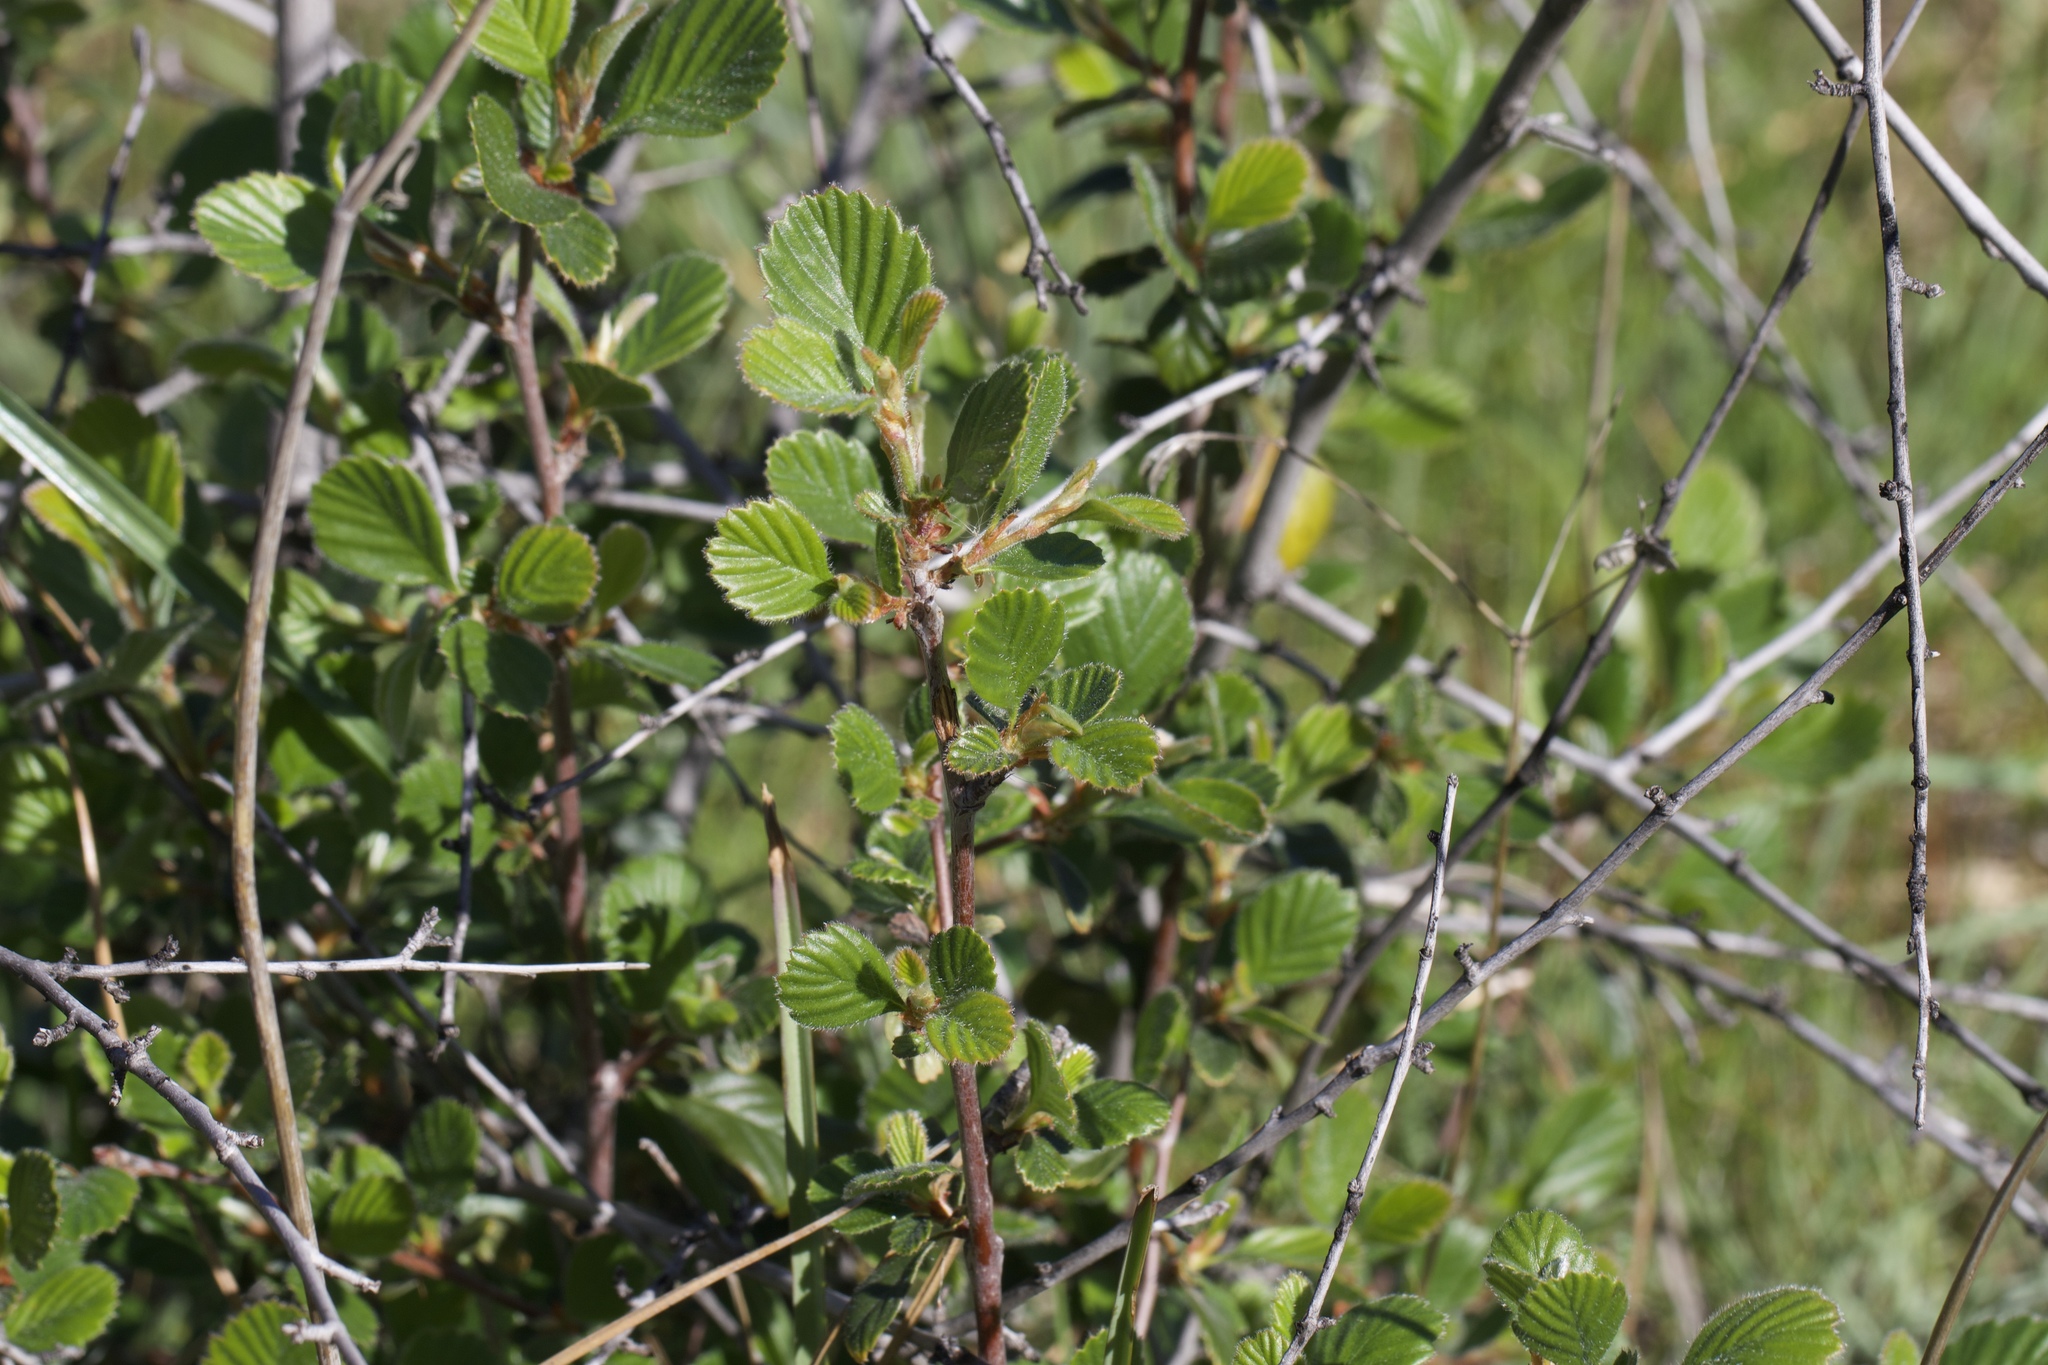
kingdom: Plantae
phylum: Tracheophyta
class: Magnoliopsida
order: Rosales
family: Rosaceae
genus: Cercocarpus
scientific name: Cercocarpus betuloides
